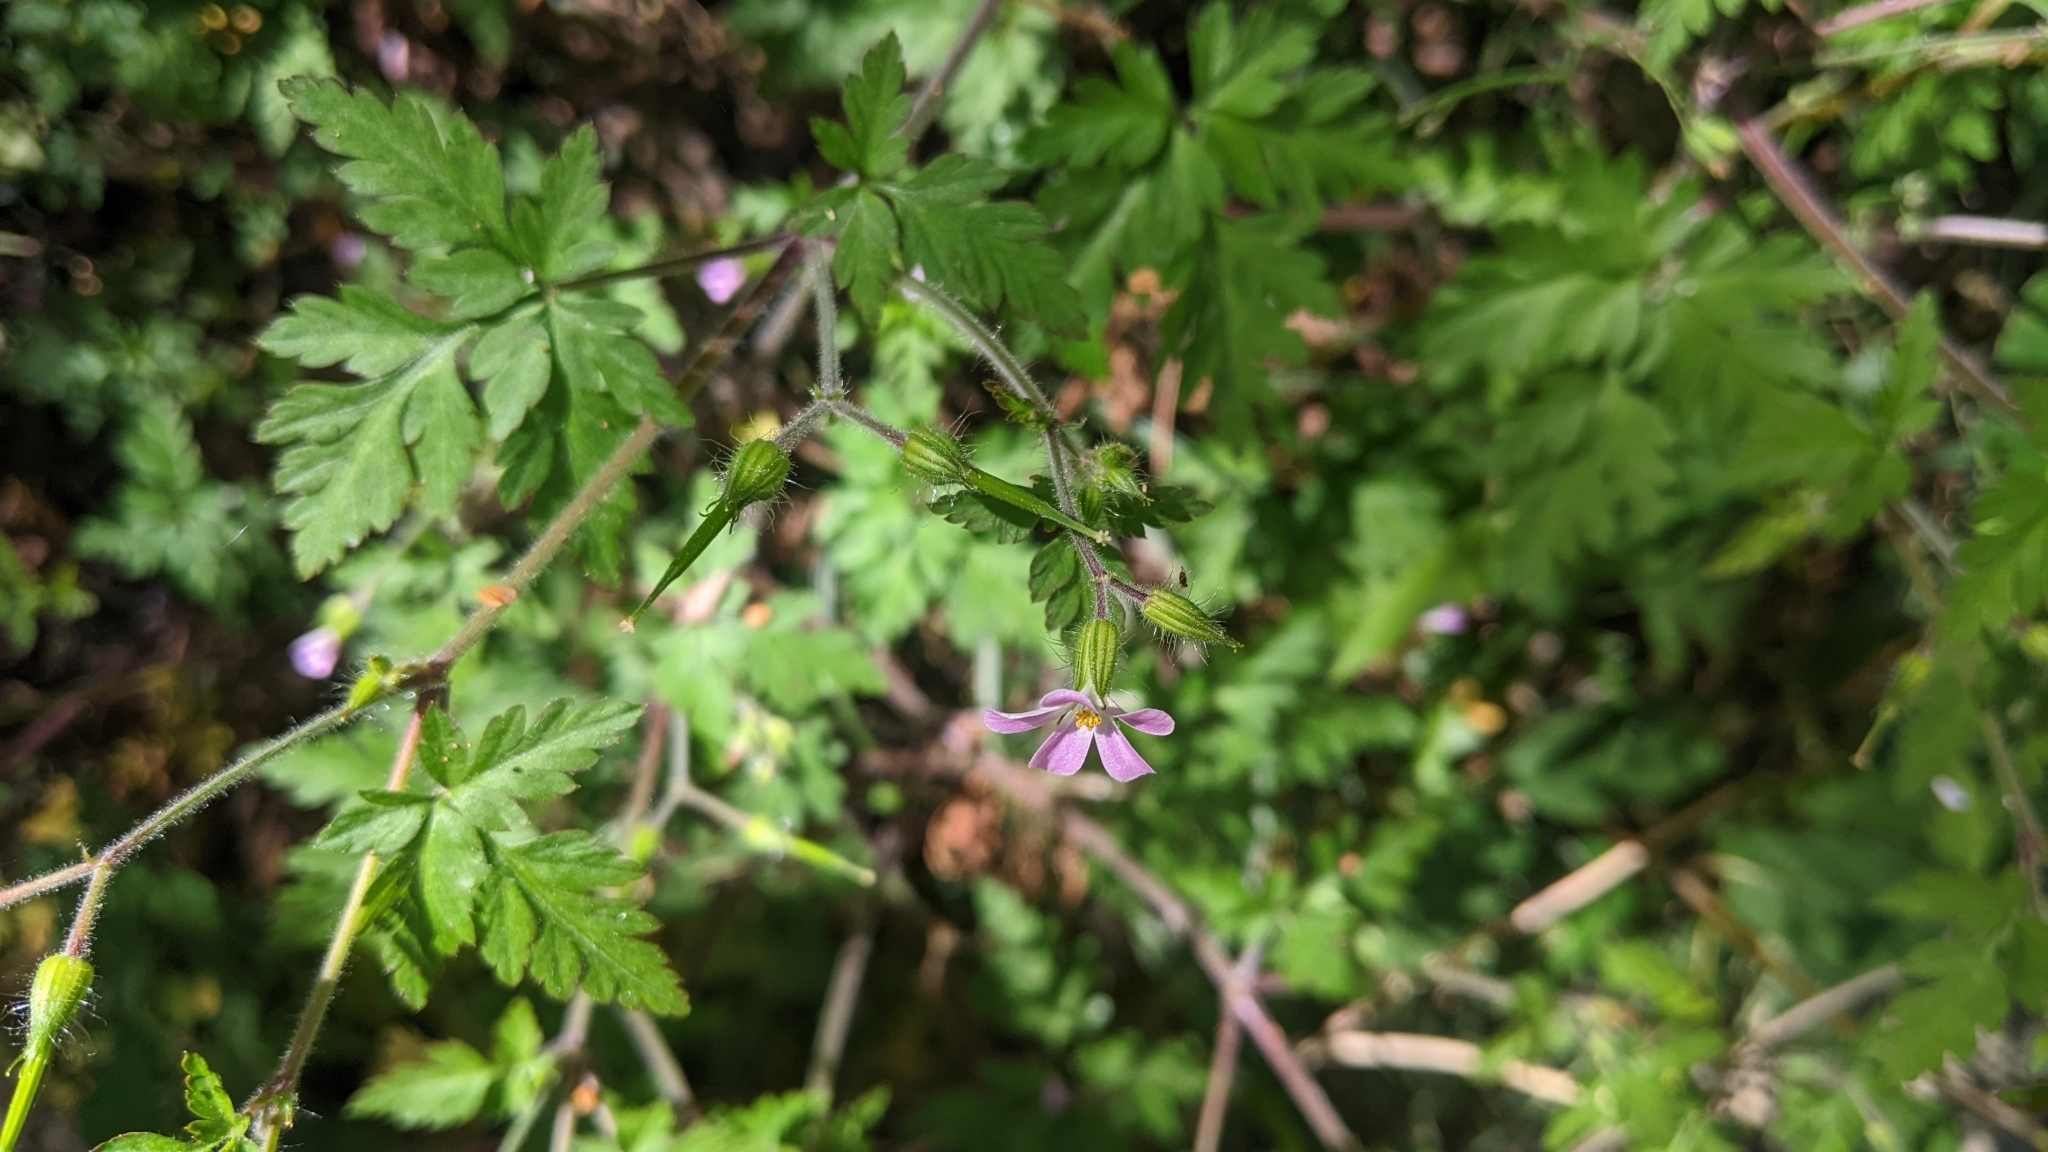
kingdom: Plantae
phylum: Tracheophyta
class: Magnoliopsida
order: Geraniales
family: Geraniaceae
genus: Geranium
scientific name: Geranium robertianum
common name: Herb-robert
